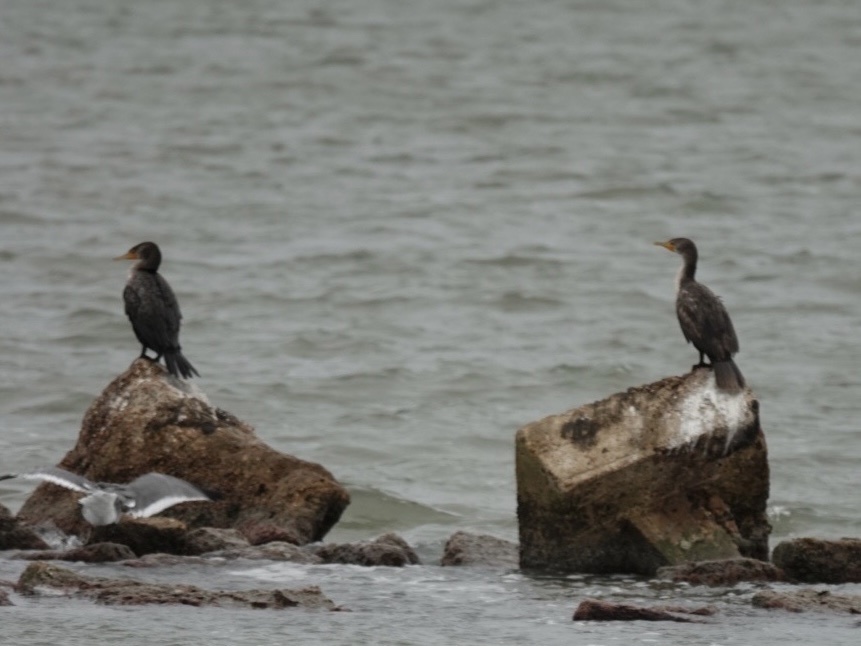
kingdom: Animalia
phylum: Chordata
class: Aves
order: Suliformes
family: Phalacrocoracidae
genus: Phalacrocorax
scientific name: Phalacrocorax auritus
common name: Double-crested cormorant
